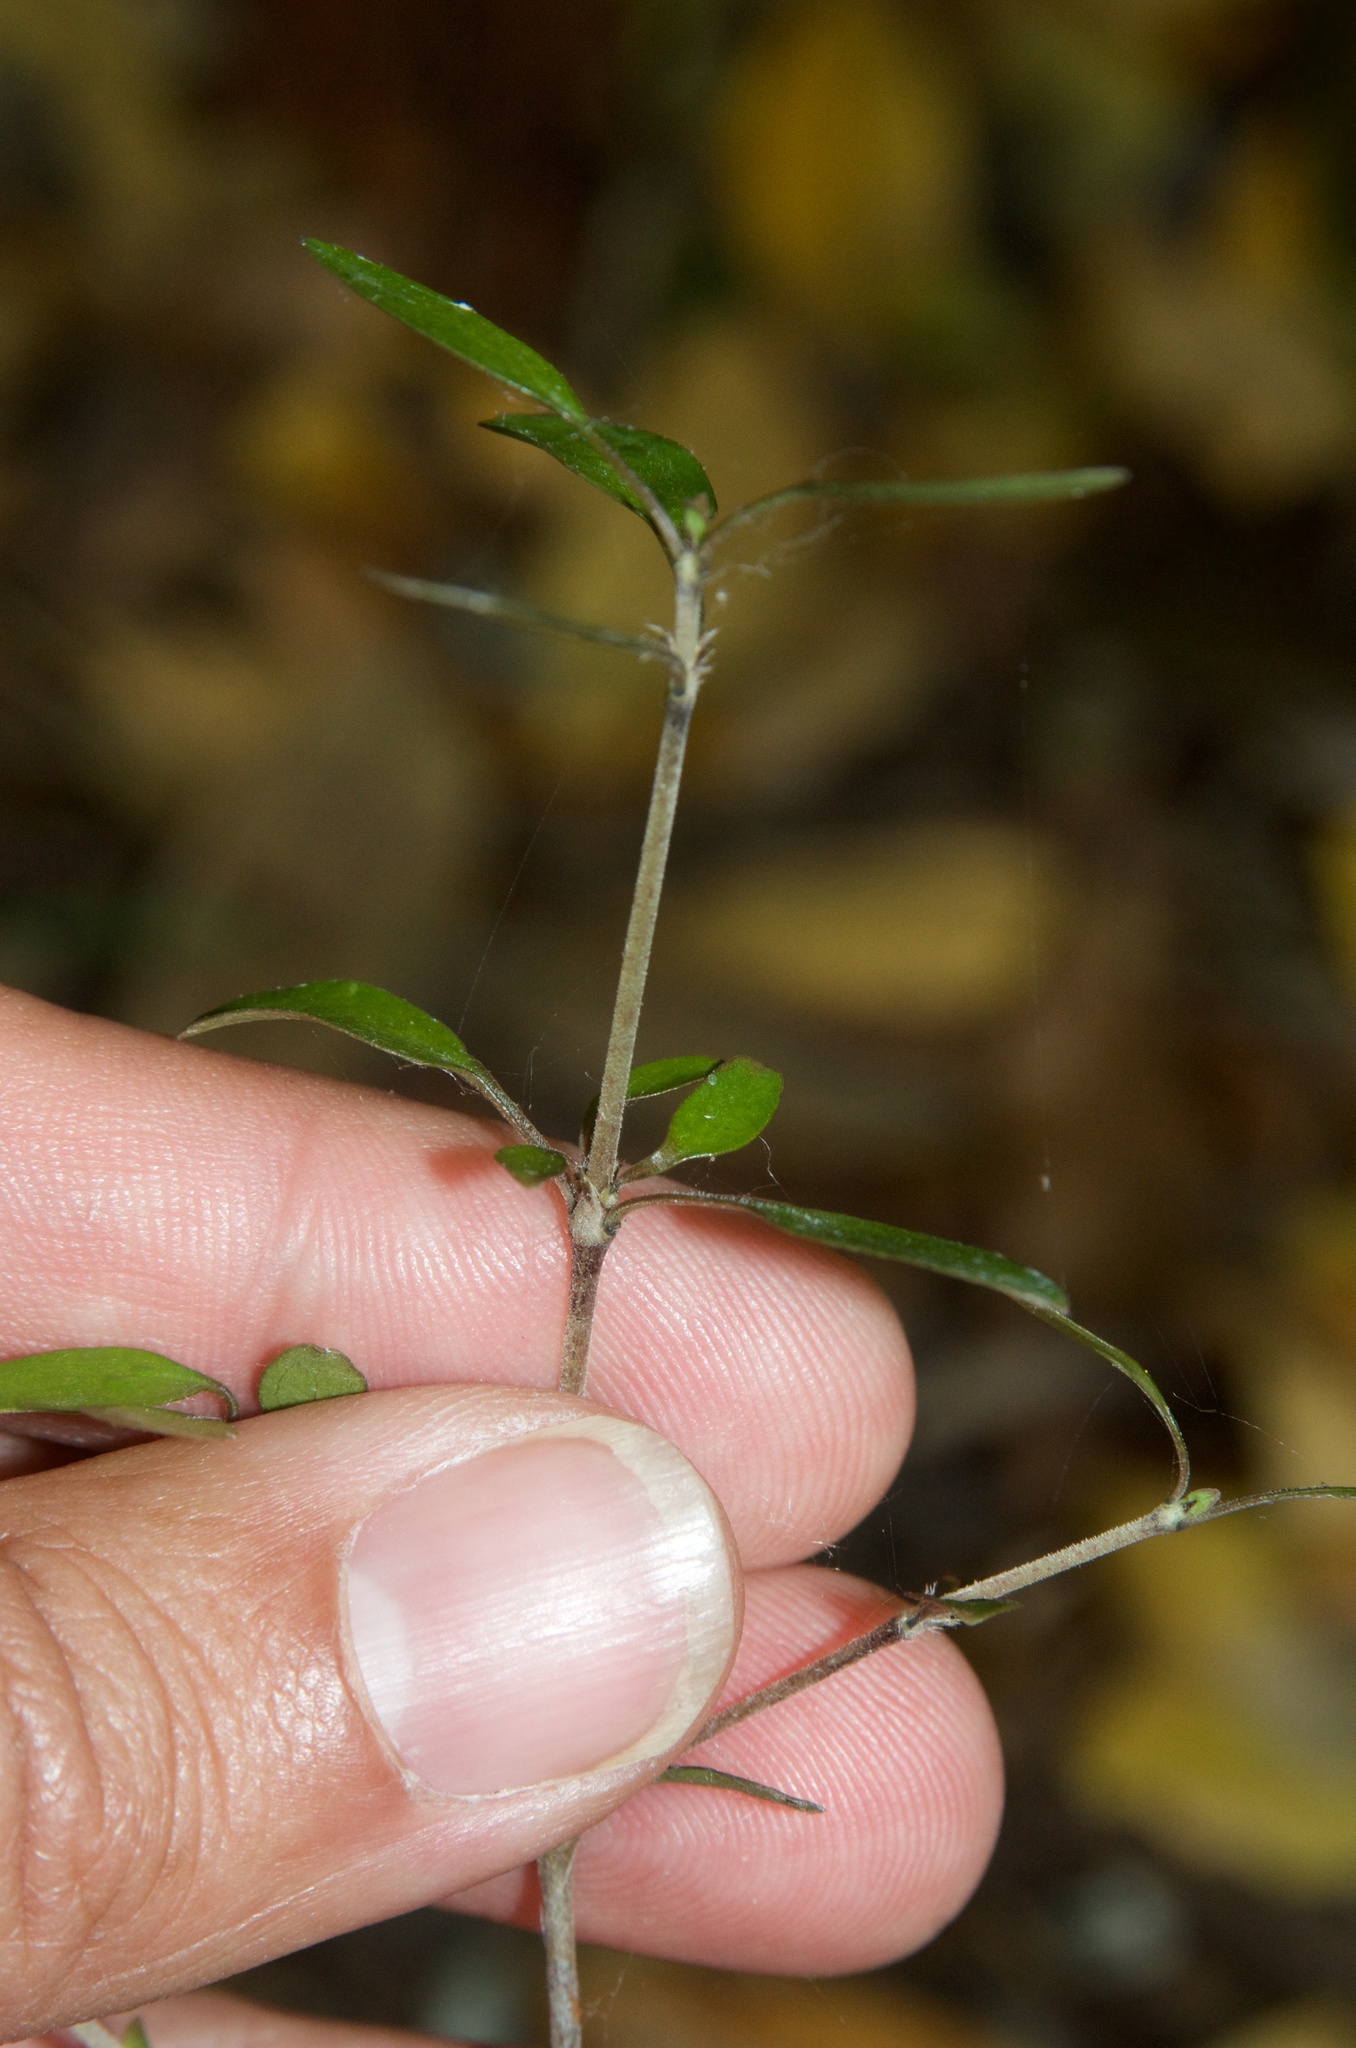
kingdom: Plantae
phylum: Tracheophyta
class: Magnoliopsida
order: Gentianales
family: Rubiaceae
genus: Coprosma
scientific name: Coprosma propinqua
